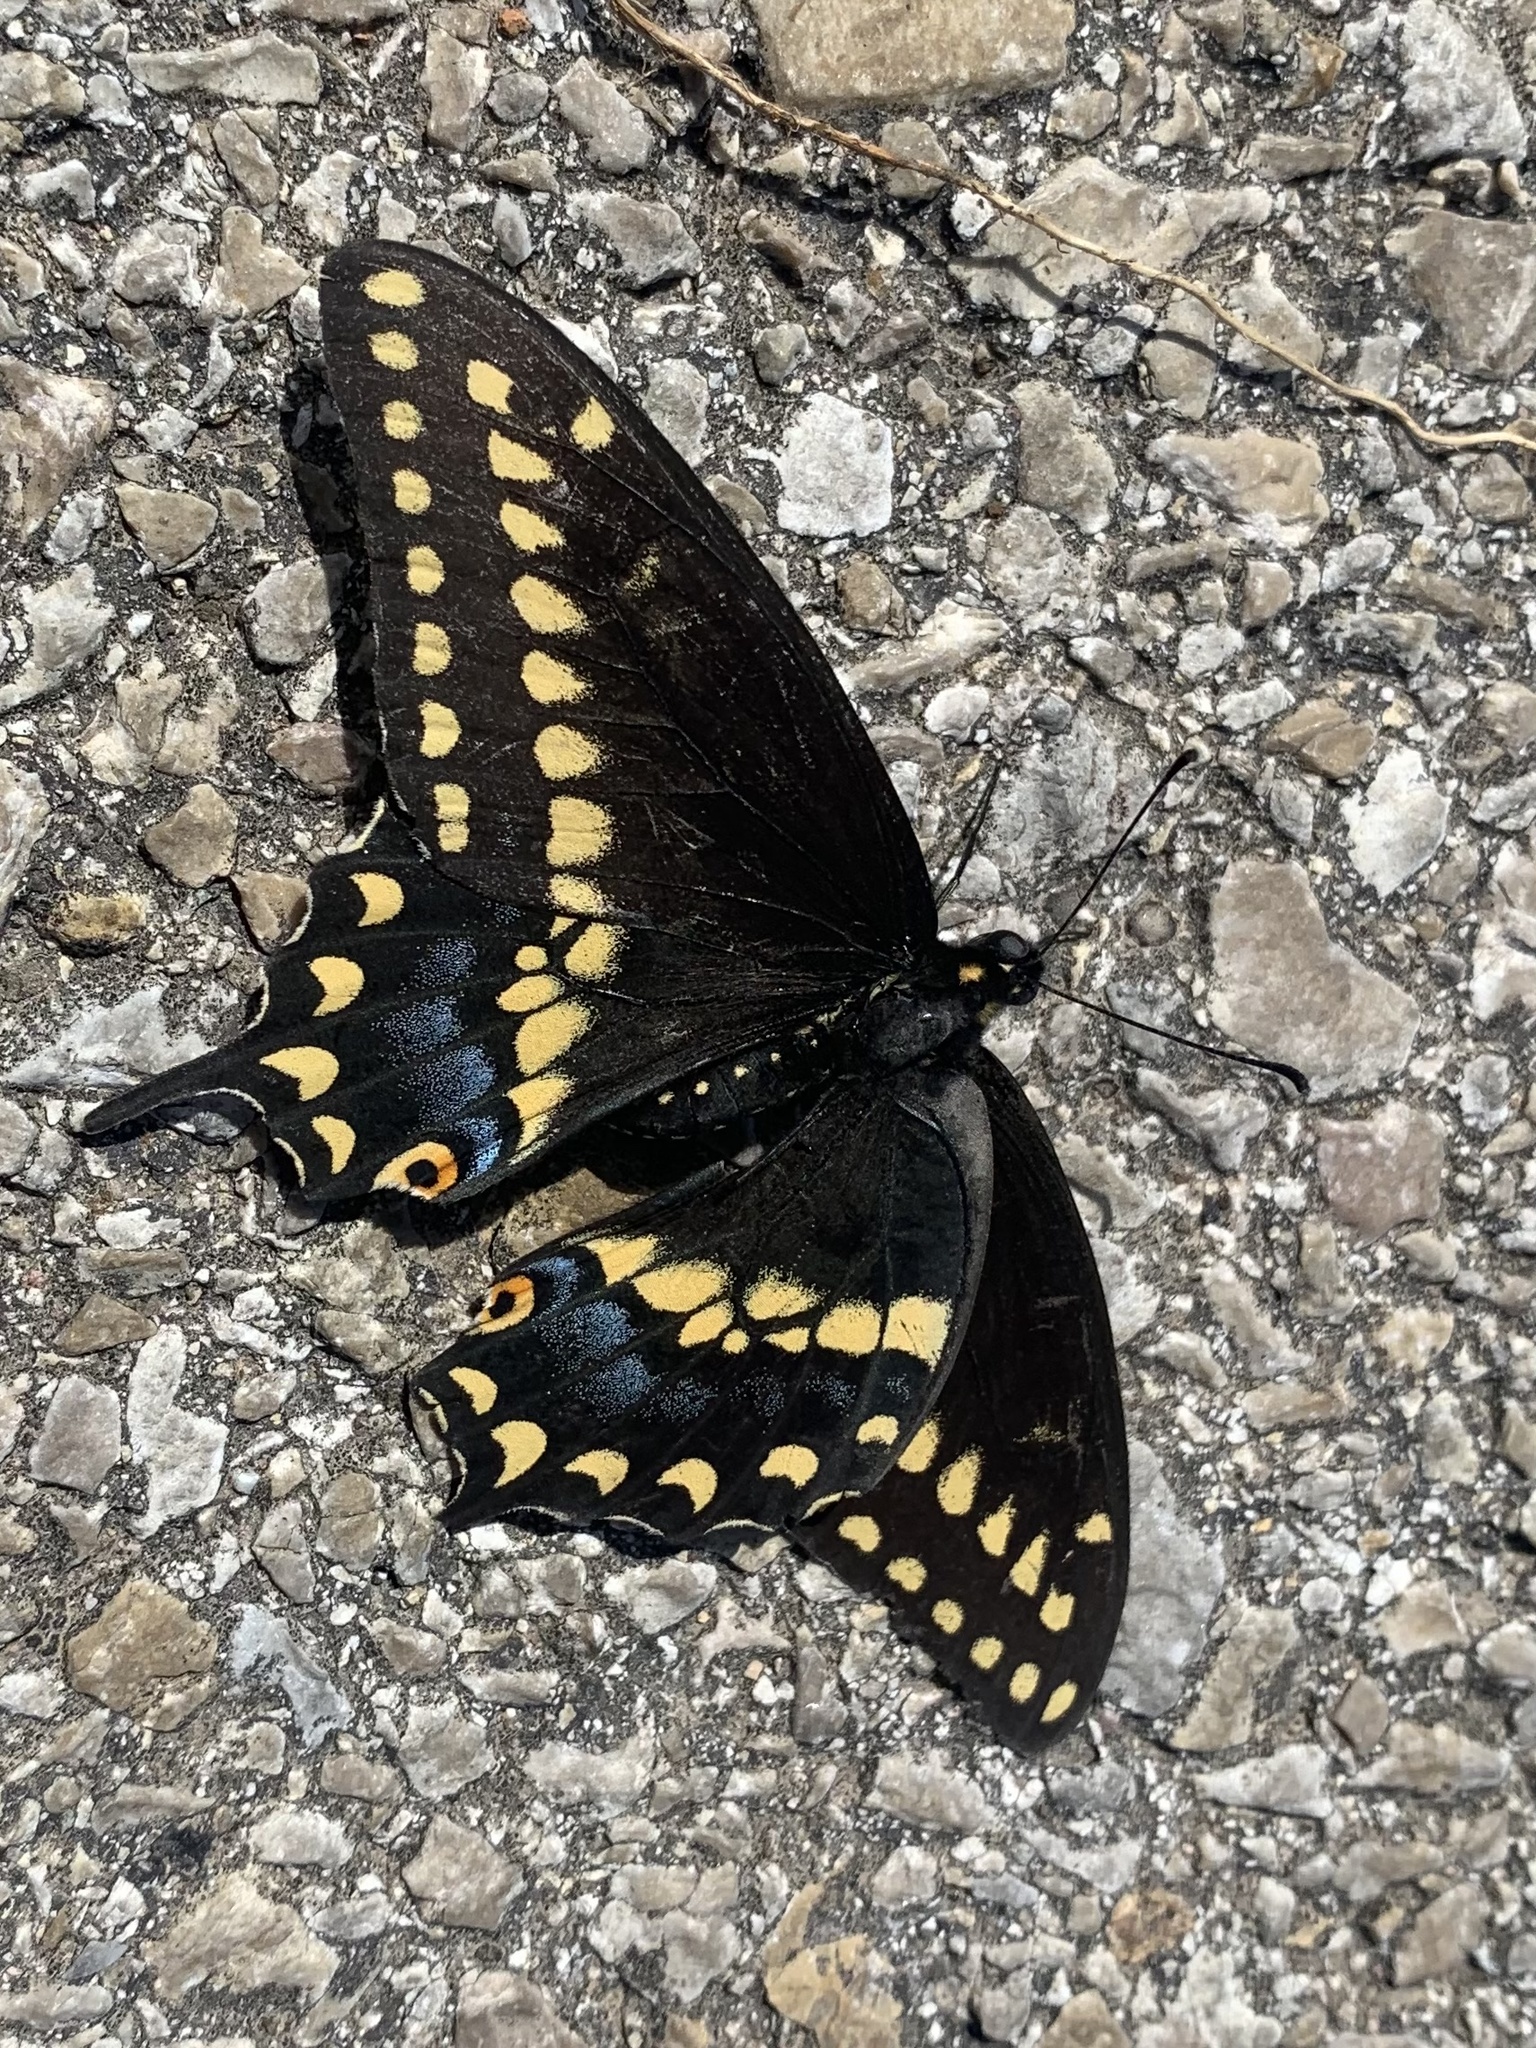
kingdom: Animalia
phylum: Arthropoda
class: Insecta
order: Lepidoptera
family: Papilionidae
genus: Papilio
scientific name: Papilio polyxenes
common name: Black swallowtail
